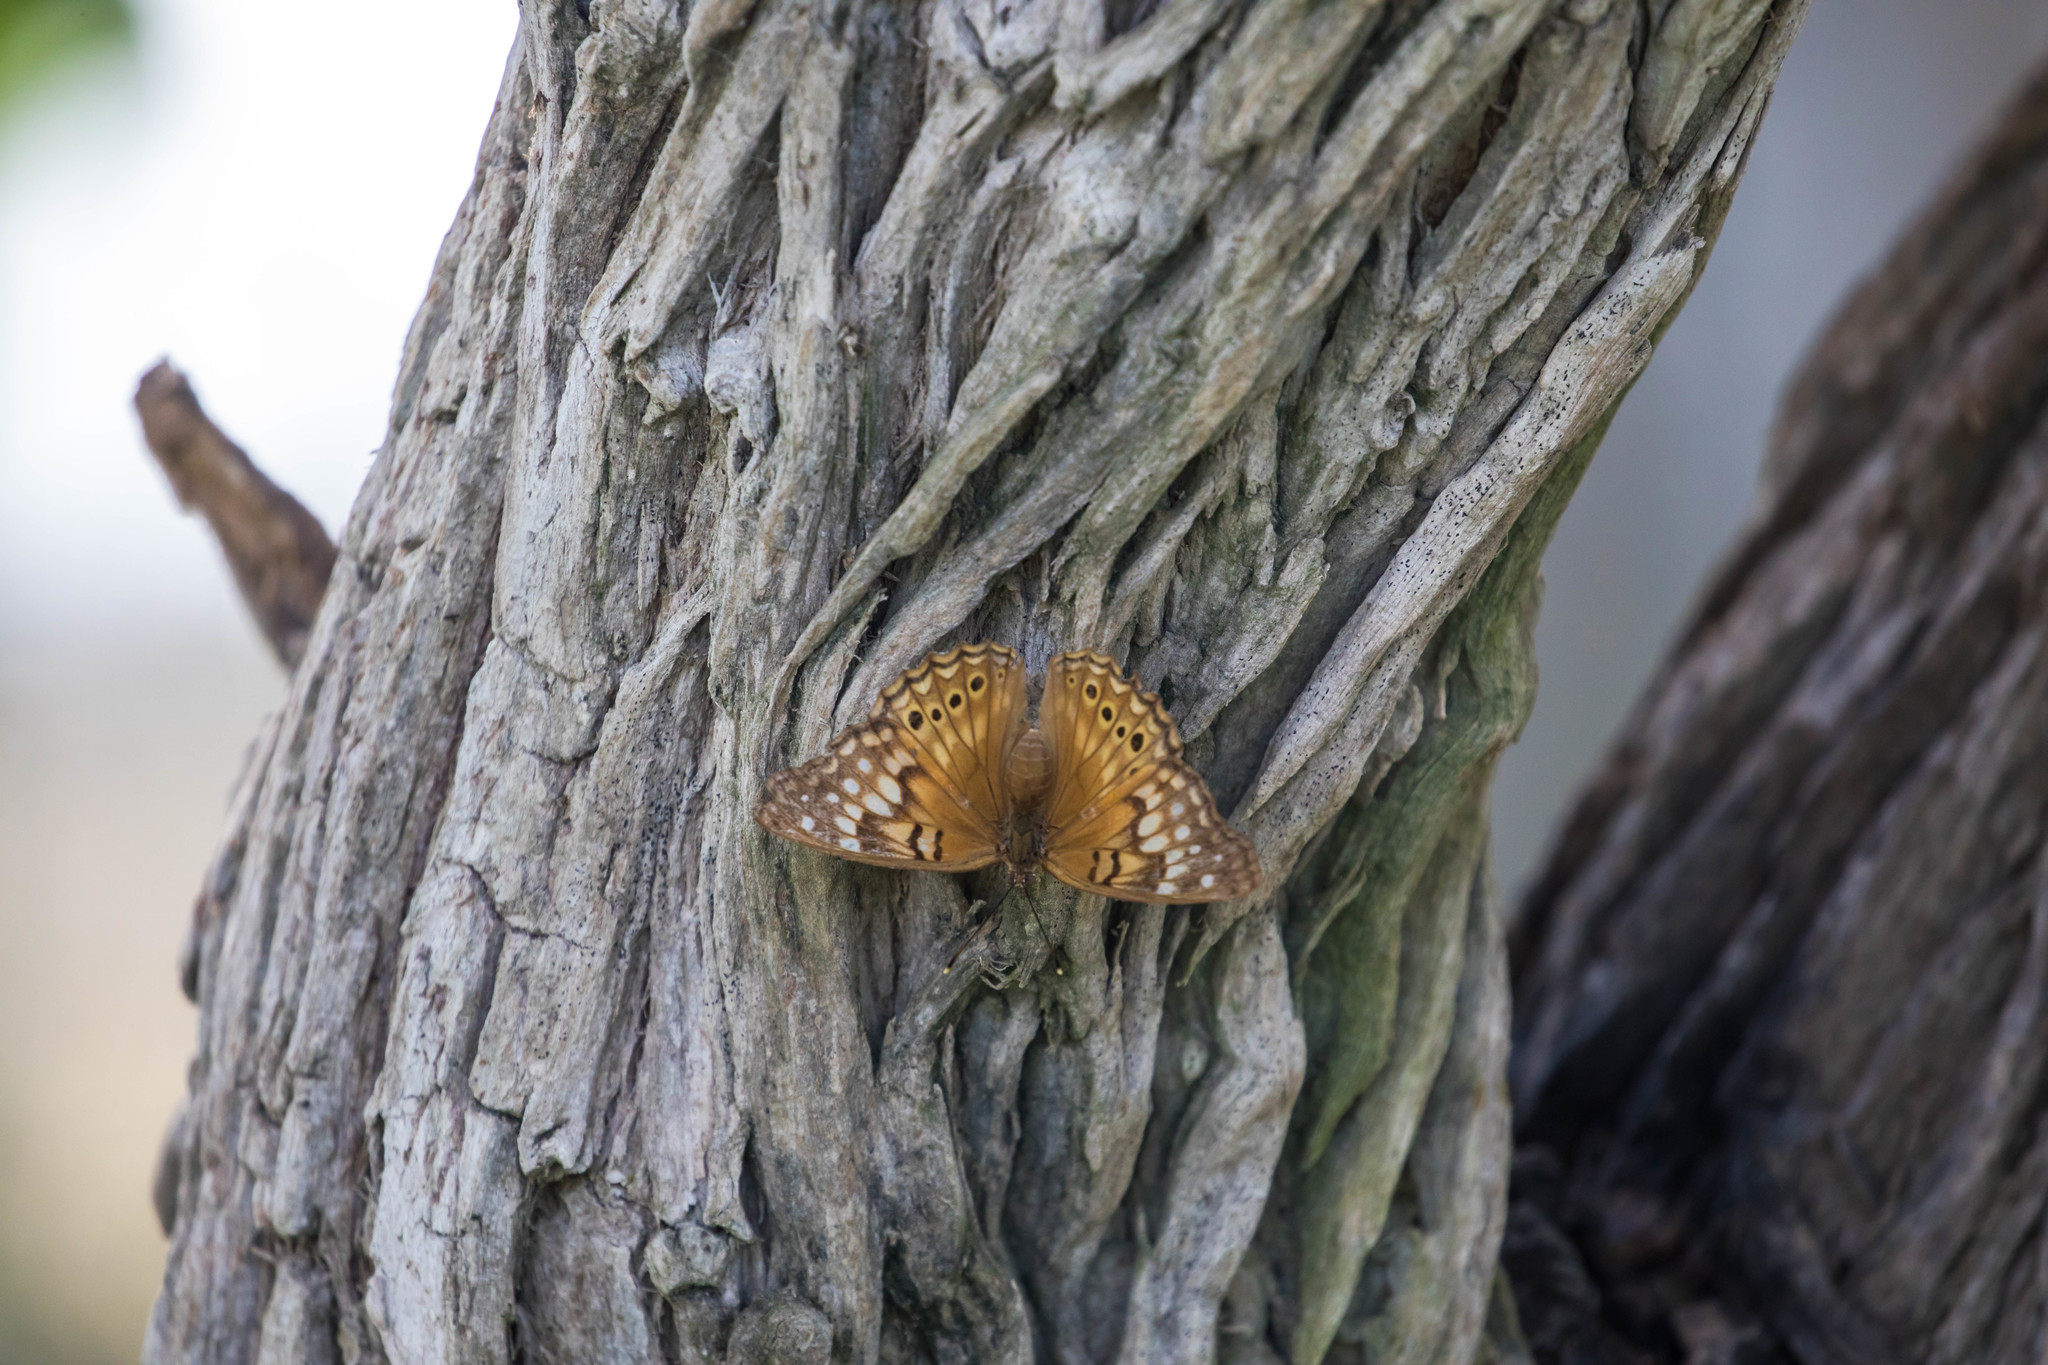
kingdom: Animalia
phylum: Arthropoda
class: Insecta
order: Lepidoptera
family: Nymphalidae
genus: Asterocampa
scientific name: Asterocampa clyton
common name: Tawny emperor
